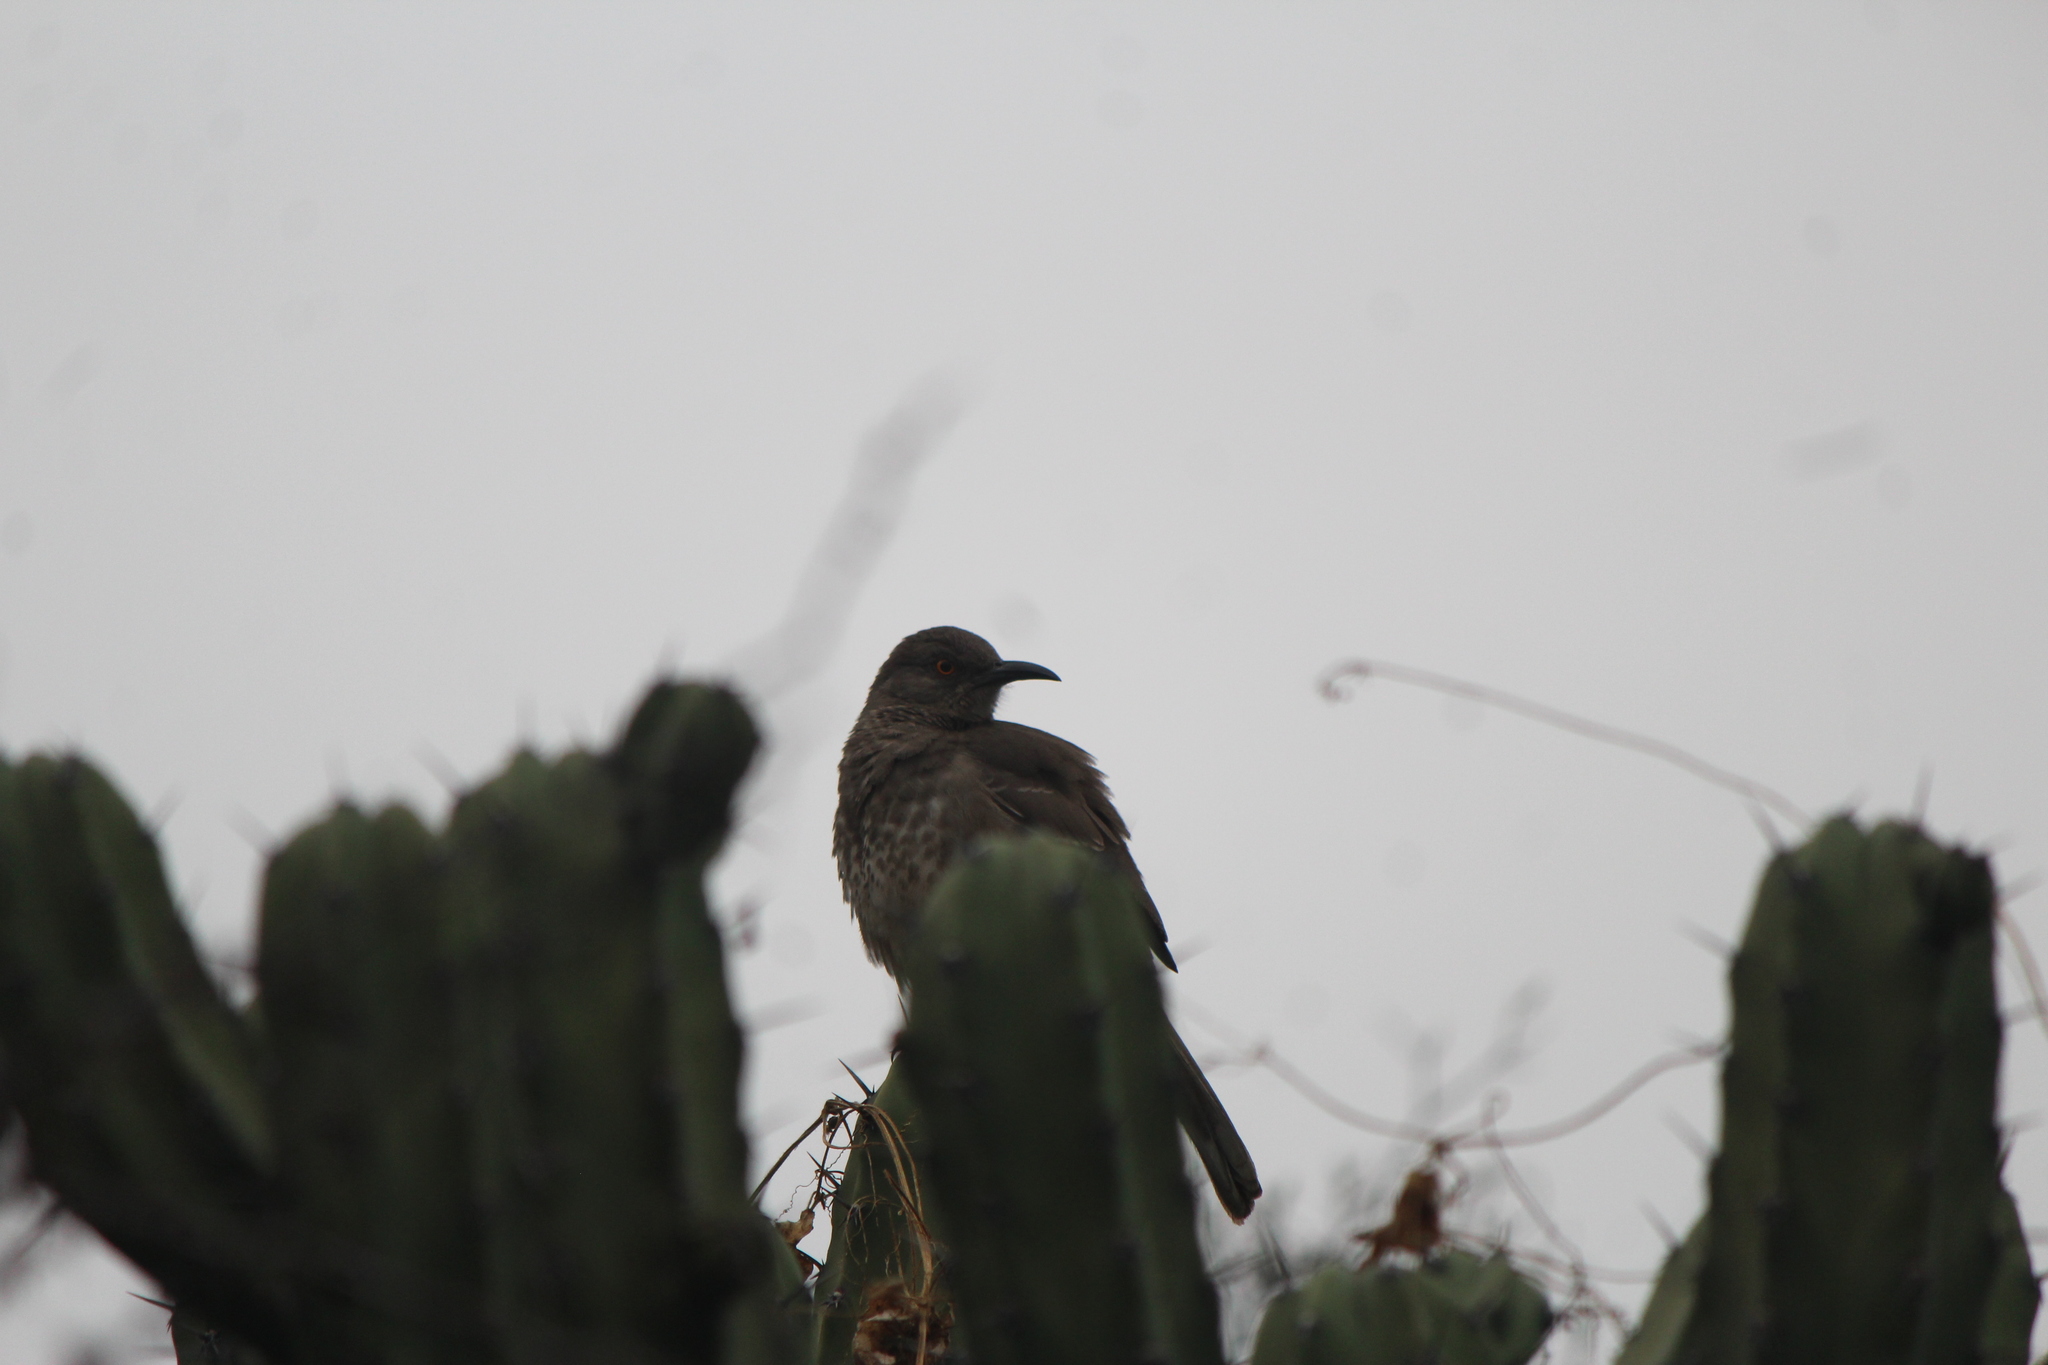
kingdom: Animalia
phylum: Chordata
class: Aves
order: Passeriformes
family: Mimidae
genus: Toxostoma
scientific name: Toxostoma curvirostre
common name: Curve-billed thrasher
